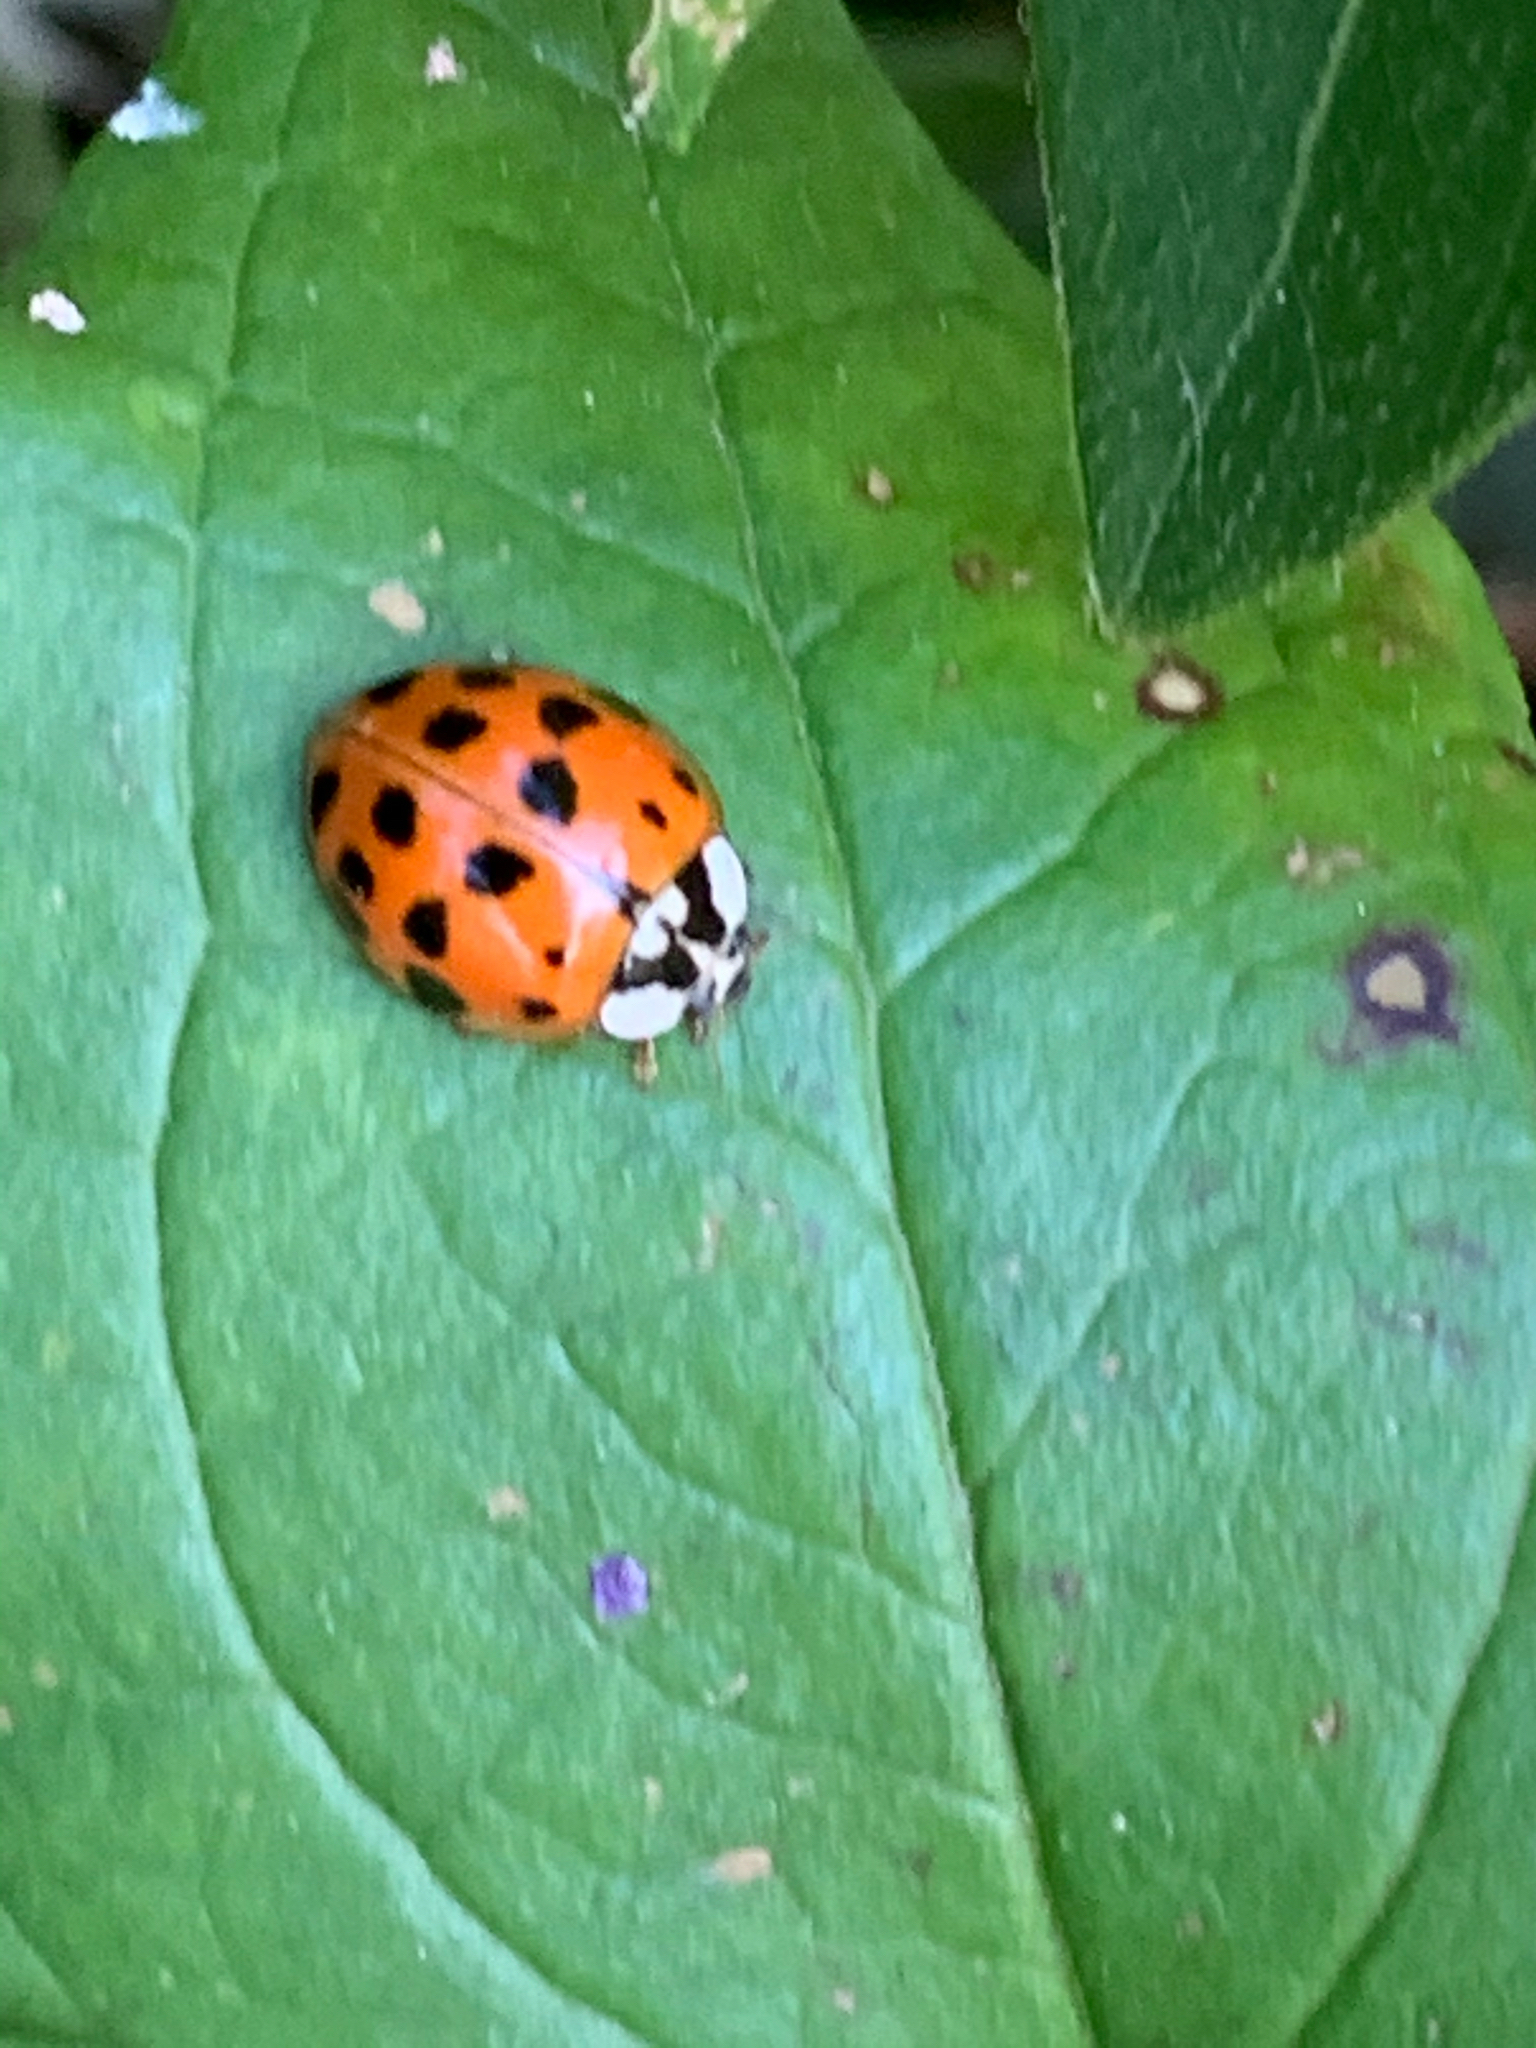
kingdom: Animalia
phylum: Arthropoda
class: Insecta
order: Coleoptera
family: Coccinellidae
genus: Harmonia
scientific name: Harmonia axyridis
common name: Harlequin ladybird
